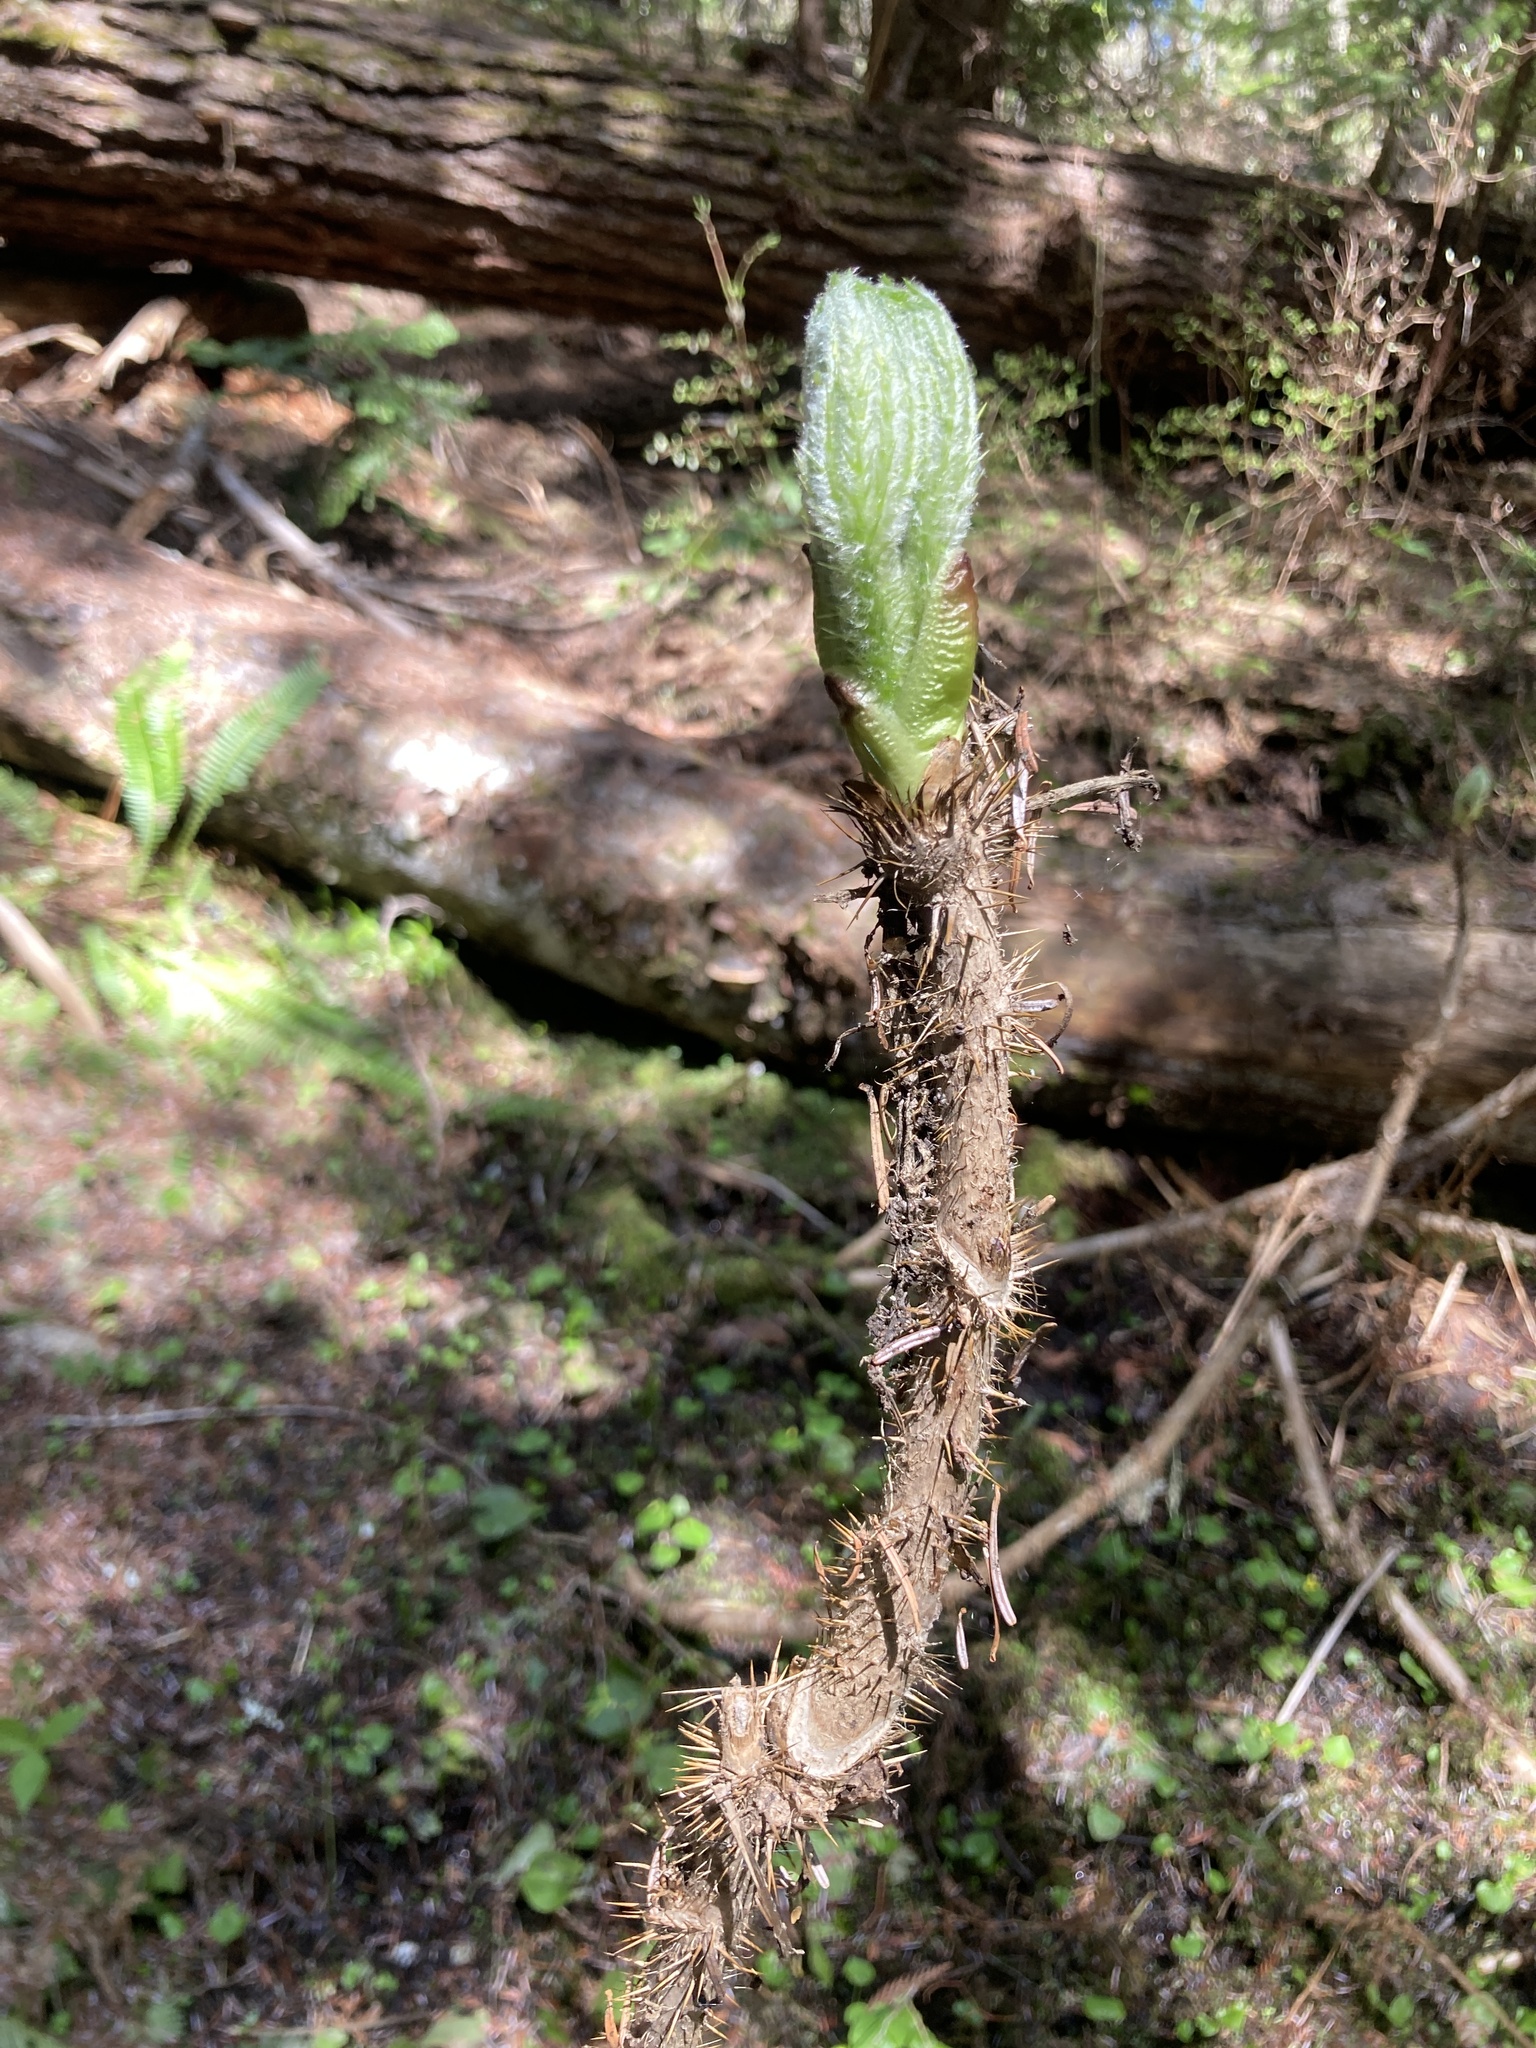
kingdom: Plantae
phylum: Tracheophyta
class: Magnoliopsida
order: Apiales
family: Araliaceae
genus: Oplopanax
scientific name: Oplopanax horridus
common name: Devil's walking-stick
